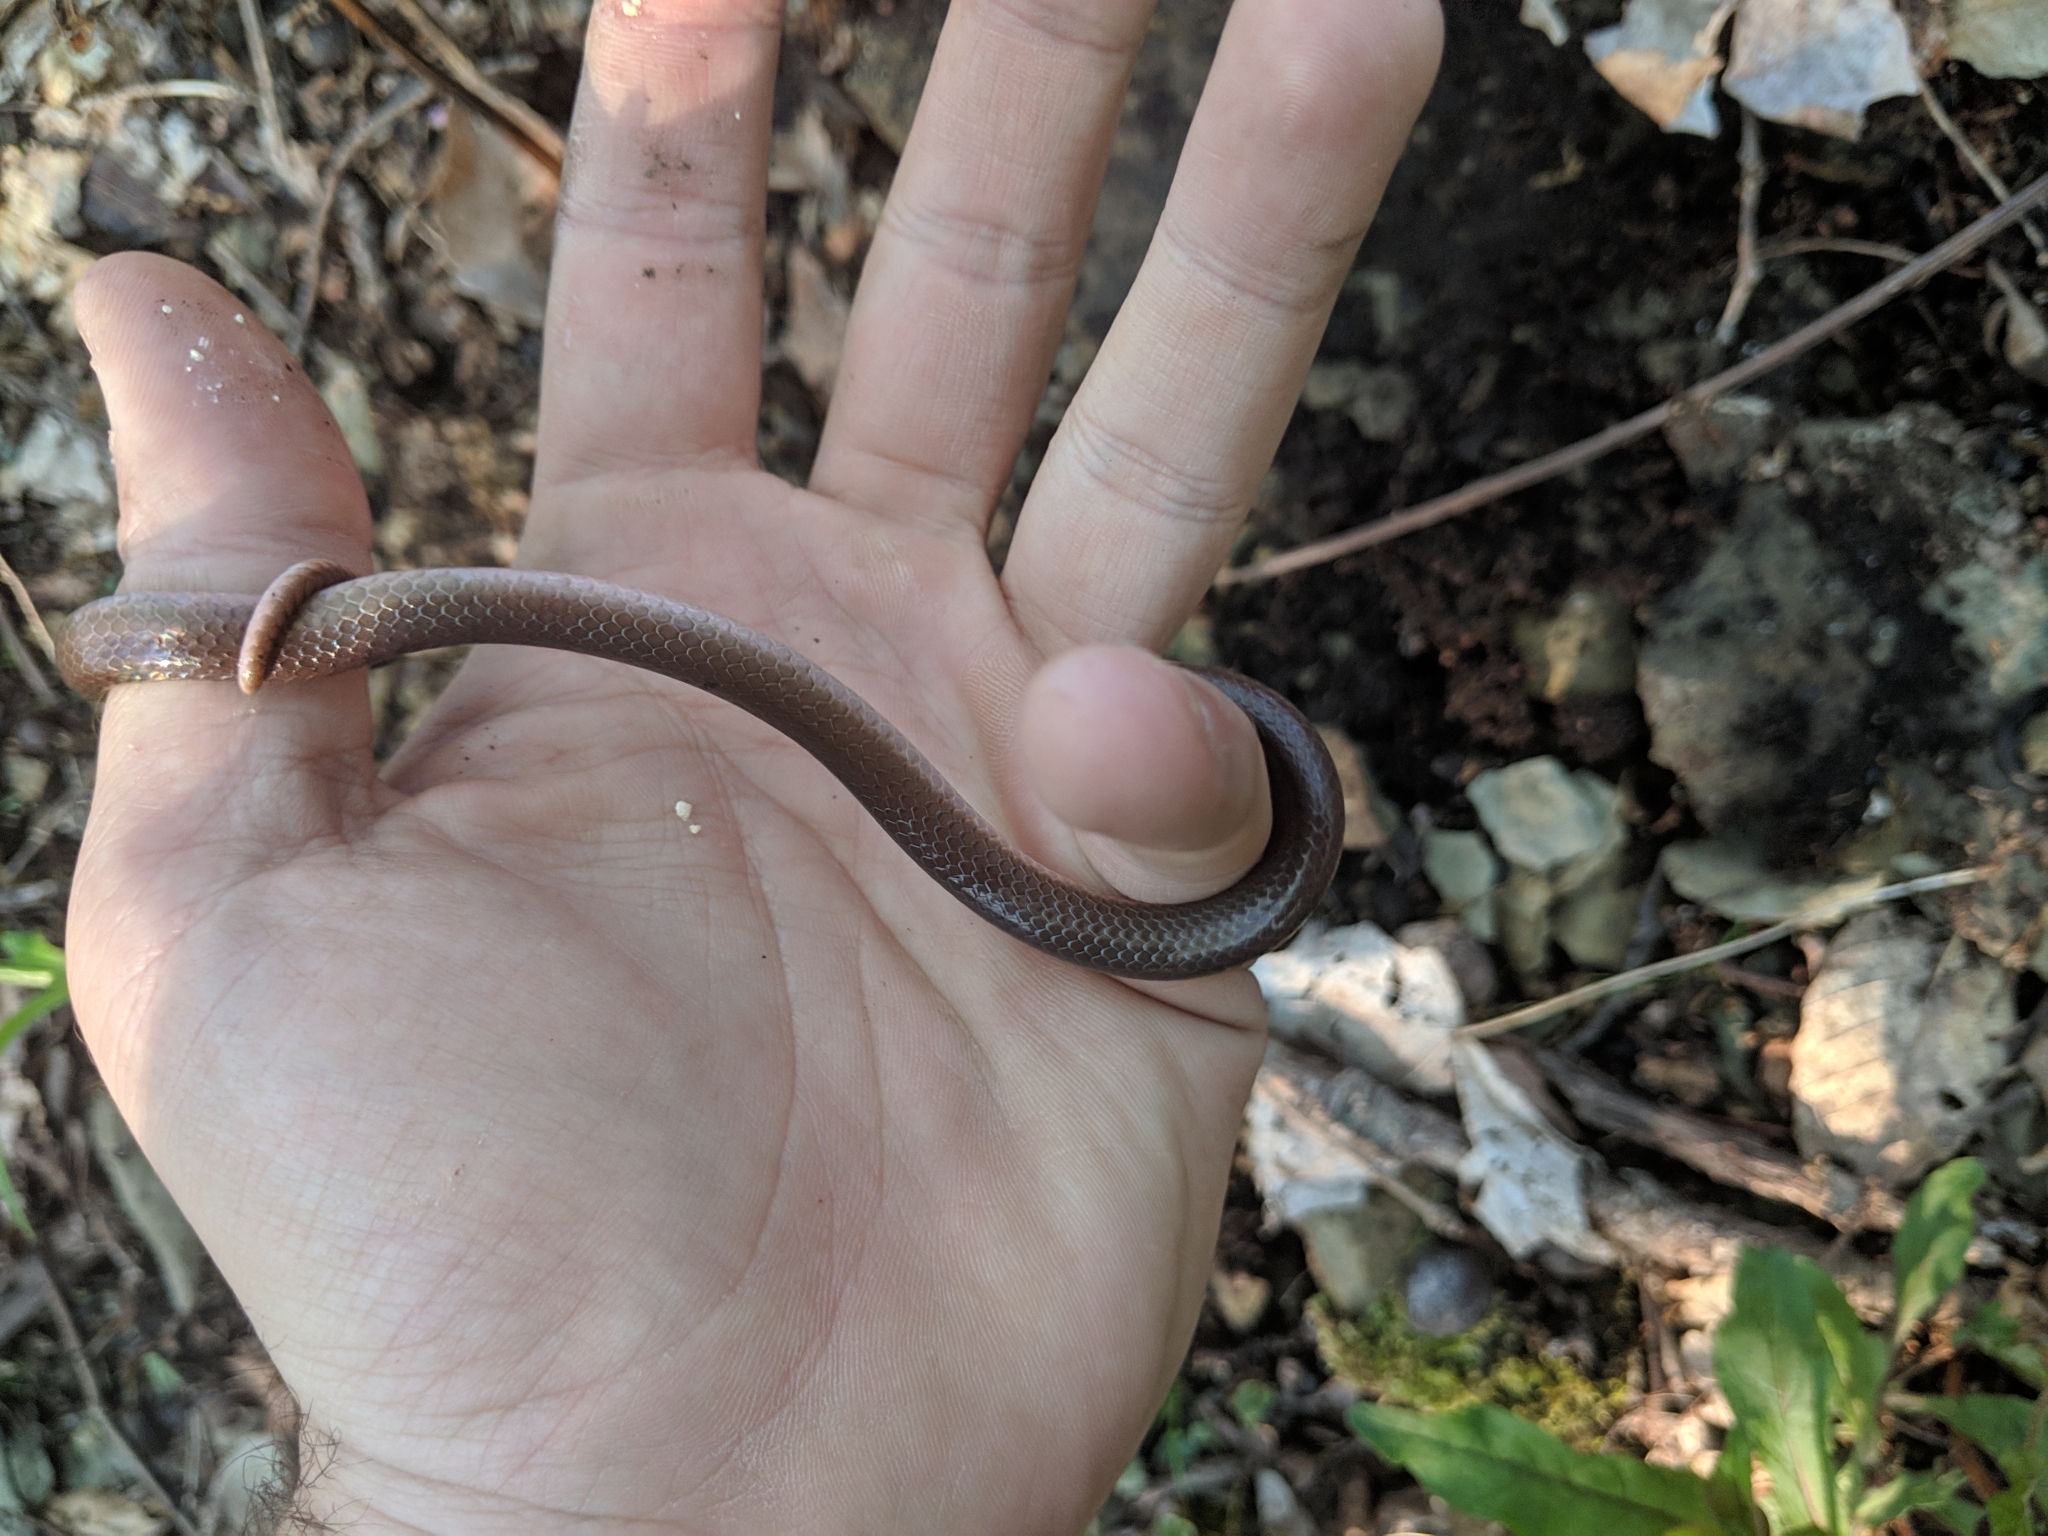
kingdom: Animalia
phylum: Chordata
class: Squamata
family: Colubridae
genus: Carphophis
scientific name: Carphophis amoenus
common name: Eastern worm snake
